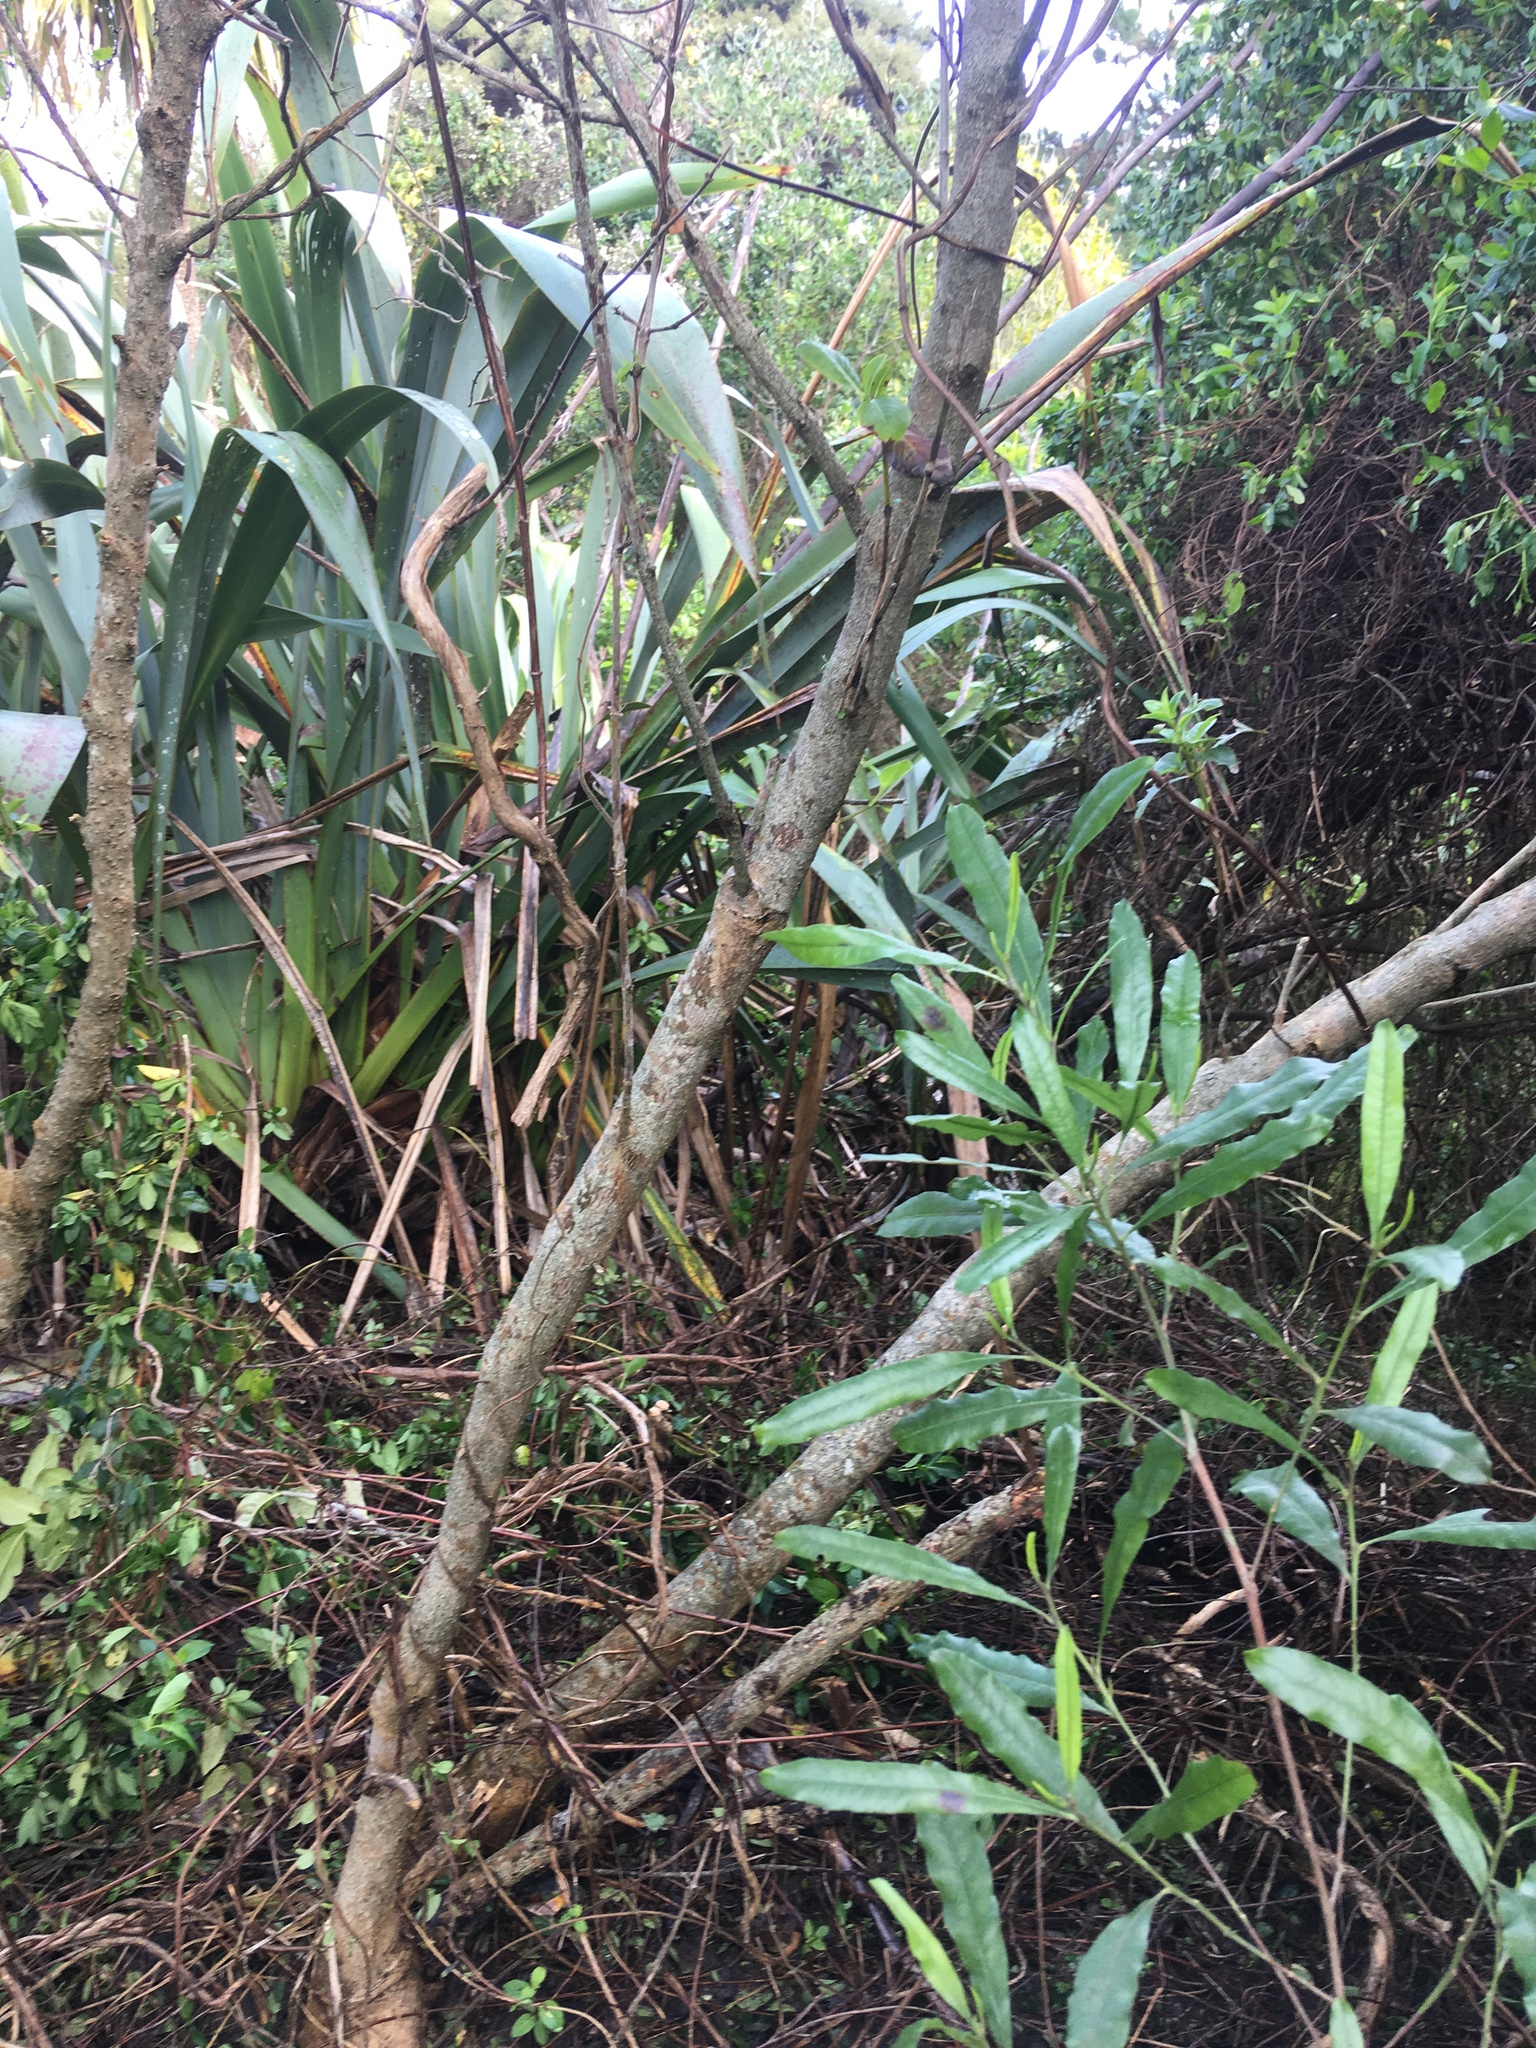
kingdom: Plantae
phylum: Tracheophyta
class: Magnoliopsida
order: Sapindales
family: Sapindaceae
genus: Dodonaea
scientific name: Dodonaea viscosa
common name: Hopbush
